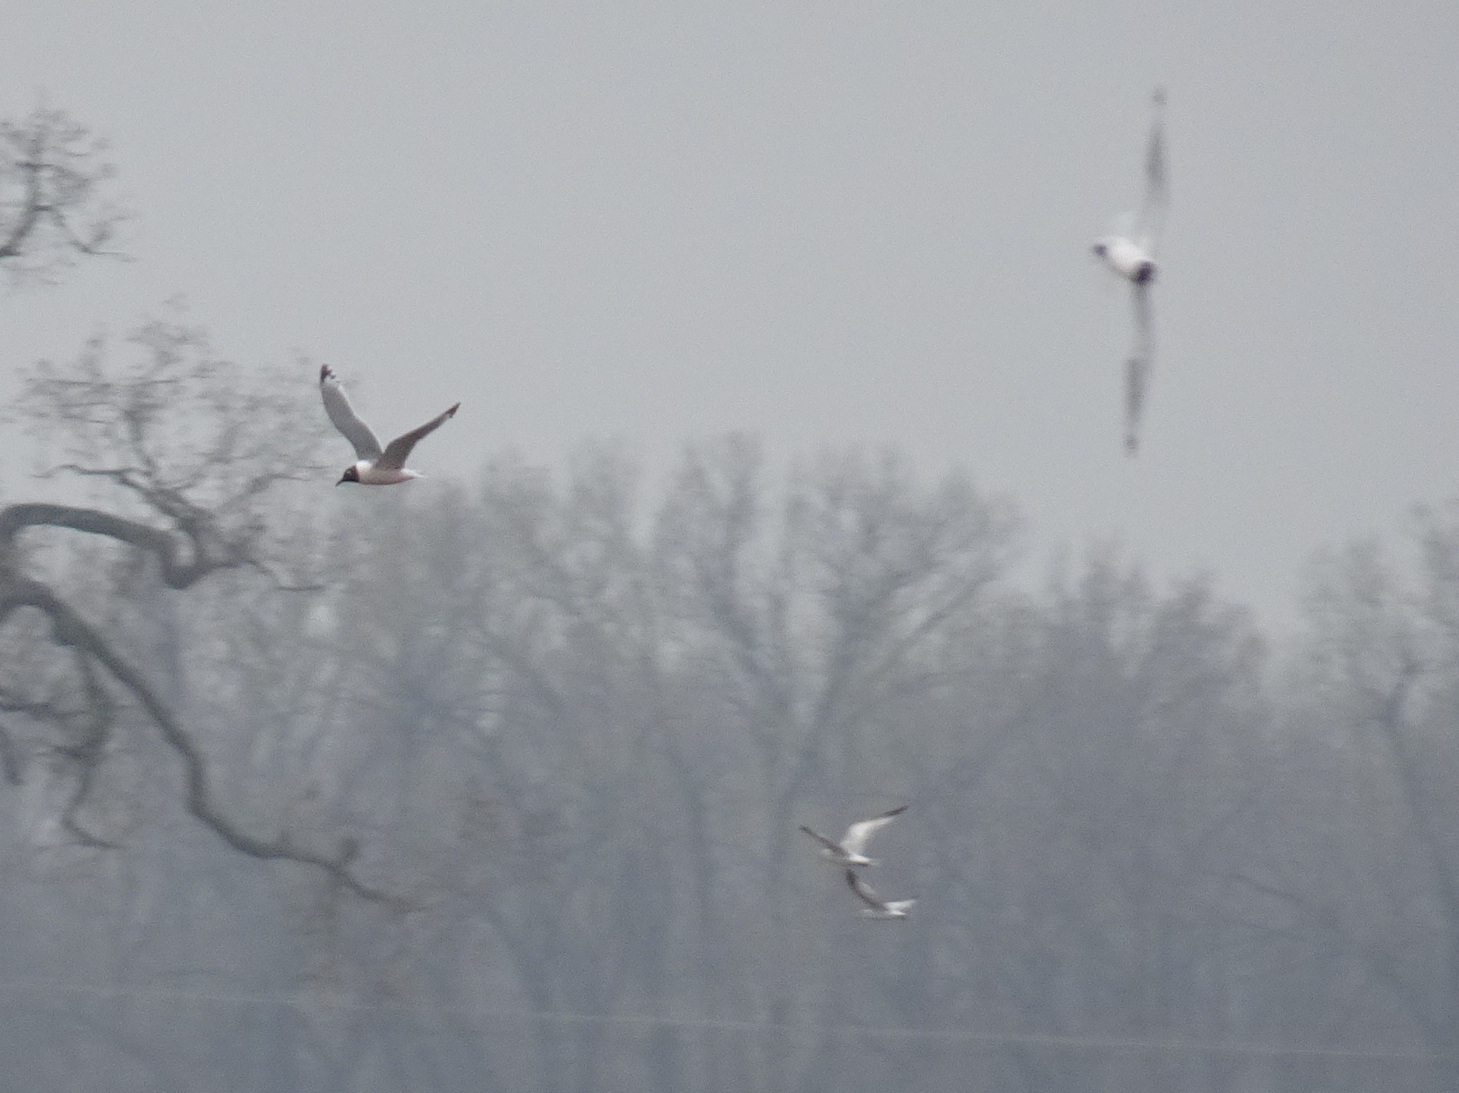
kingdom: Animalia
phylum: Chordata
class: Aves
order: Charadriiformes
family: Laridae
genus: Leucophaeus
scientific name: Leucophaeus pipixcan
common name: Franklin's gull
